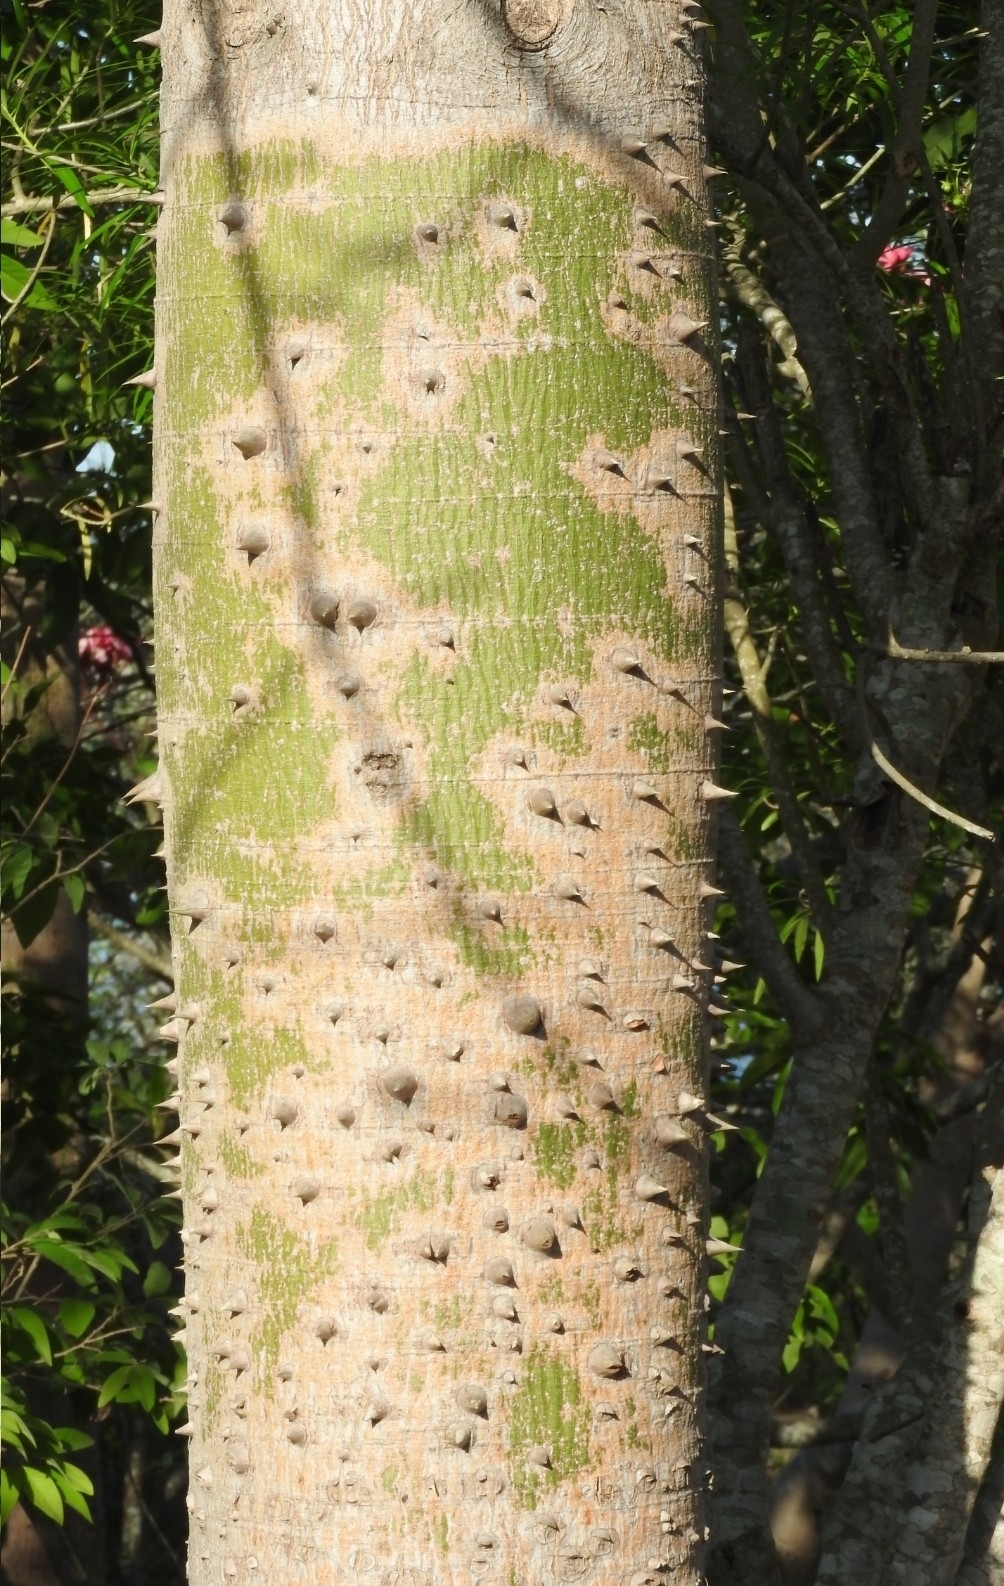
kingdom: Plantae
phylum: Tracheophyta
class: Magnoliopsida
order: Malvales
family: Malvaceae
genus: Ceiba
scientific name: Ceiba pentandra
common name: Kapok
